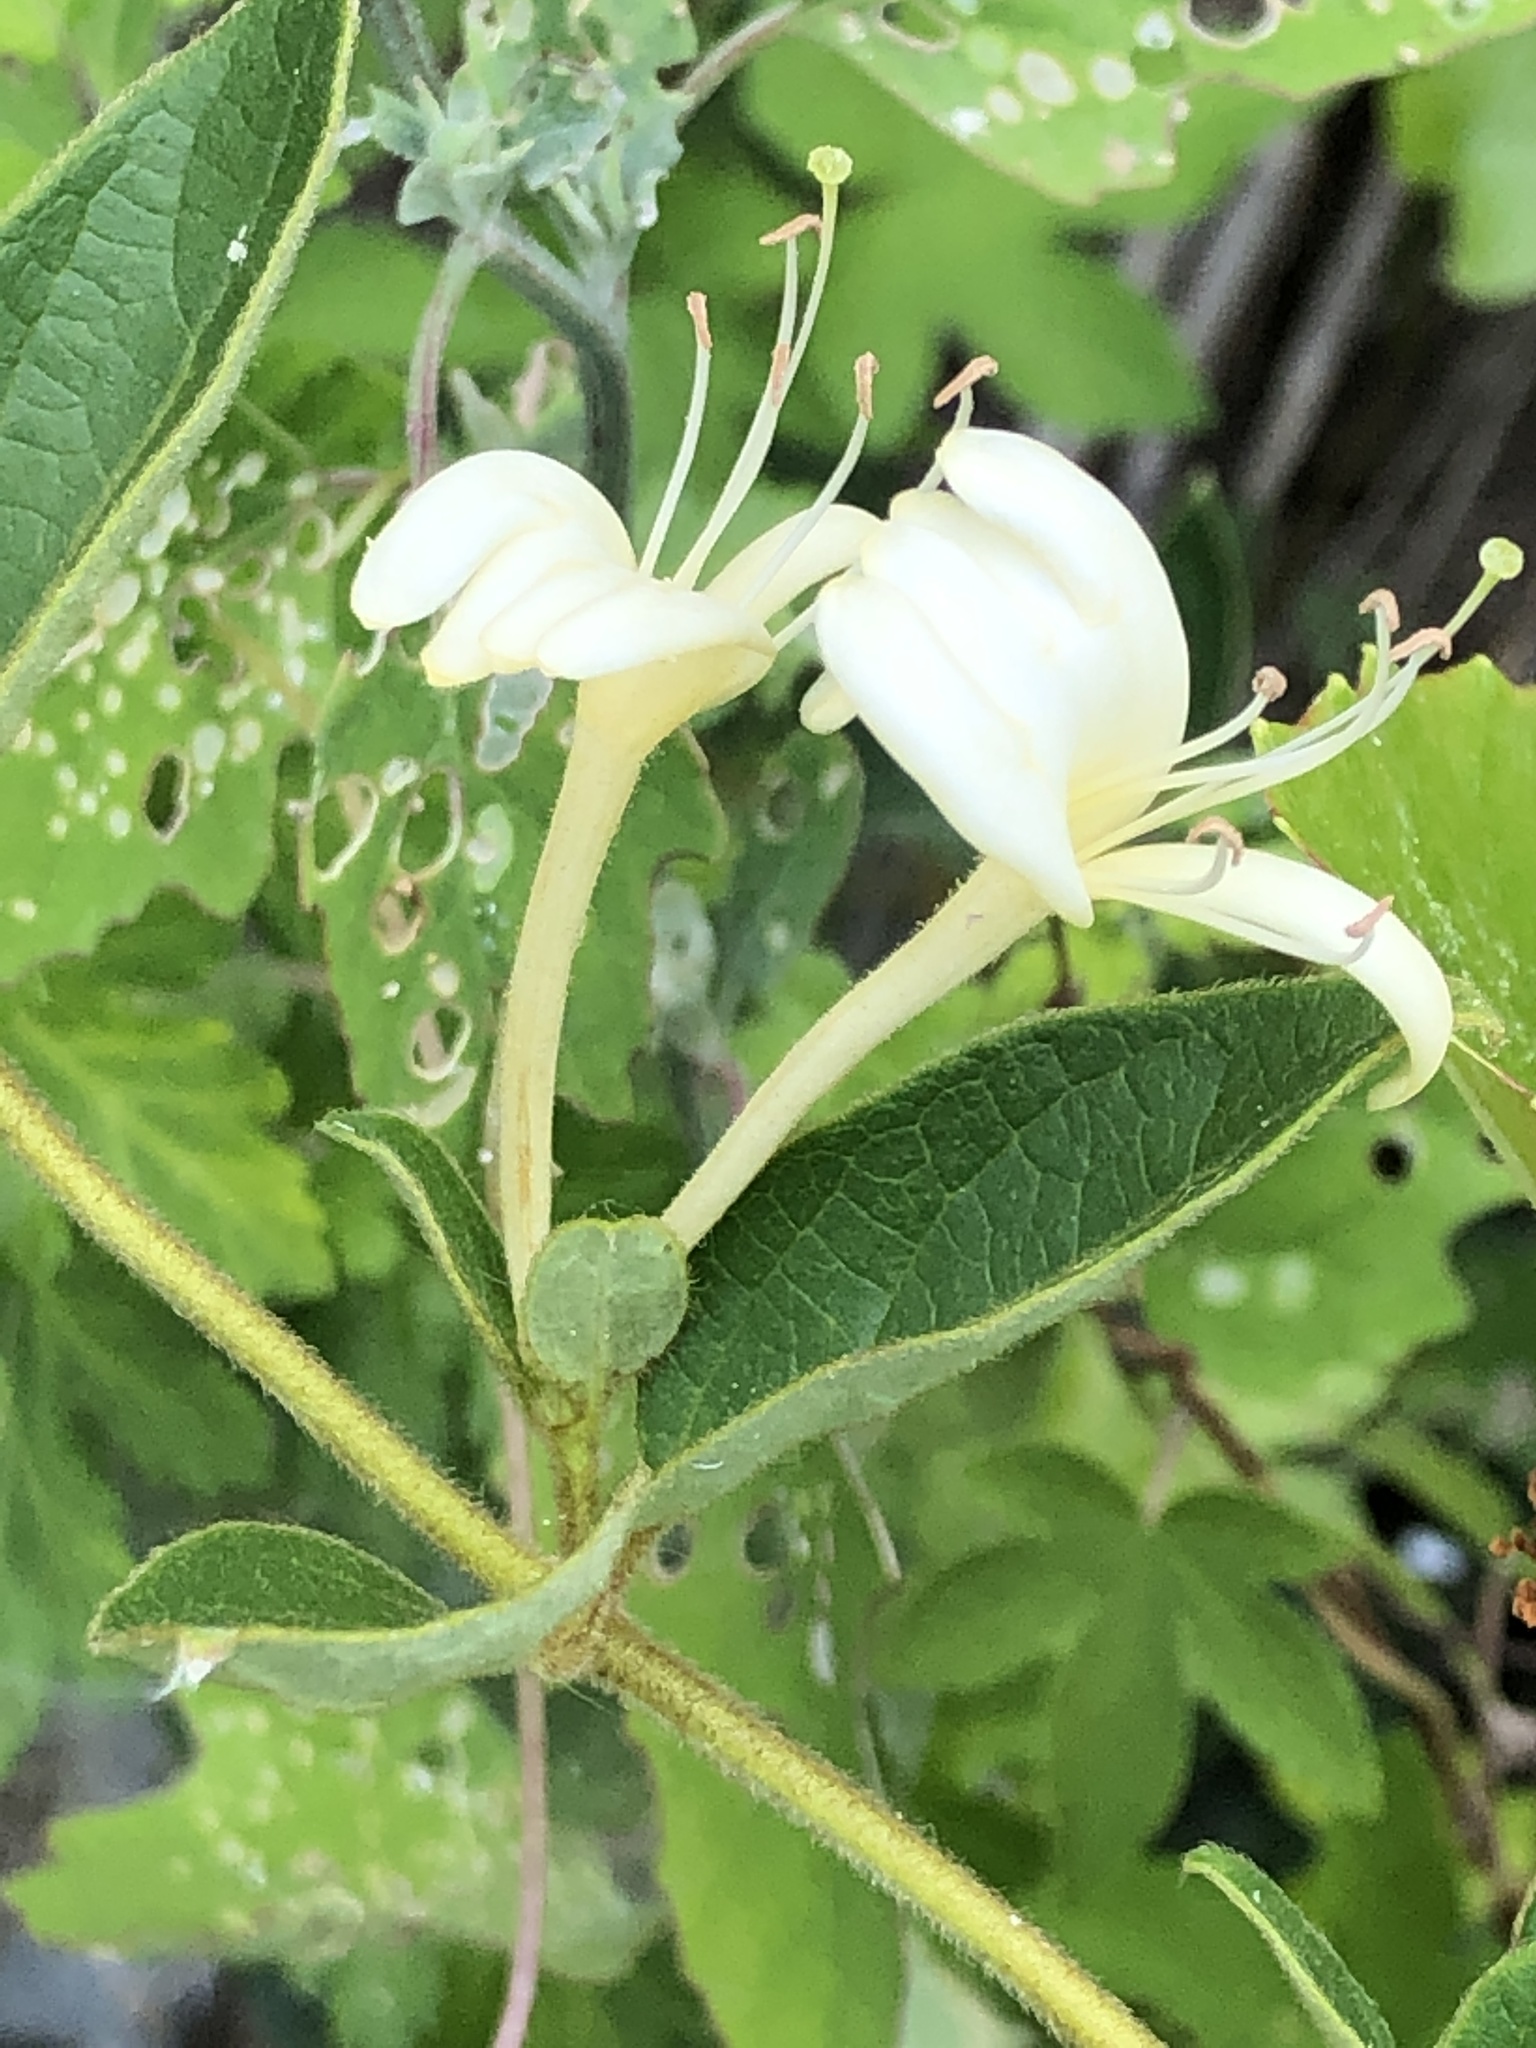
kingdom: Plantae
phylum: Tracheophyta
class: Magnoliopsida
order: Dipsacales
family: Caprifoliaceae
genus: Lonicera
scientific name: Lonicera japonica
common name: Japanese honeysuckle
